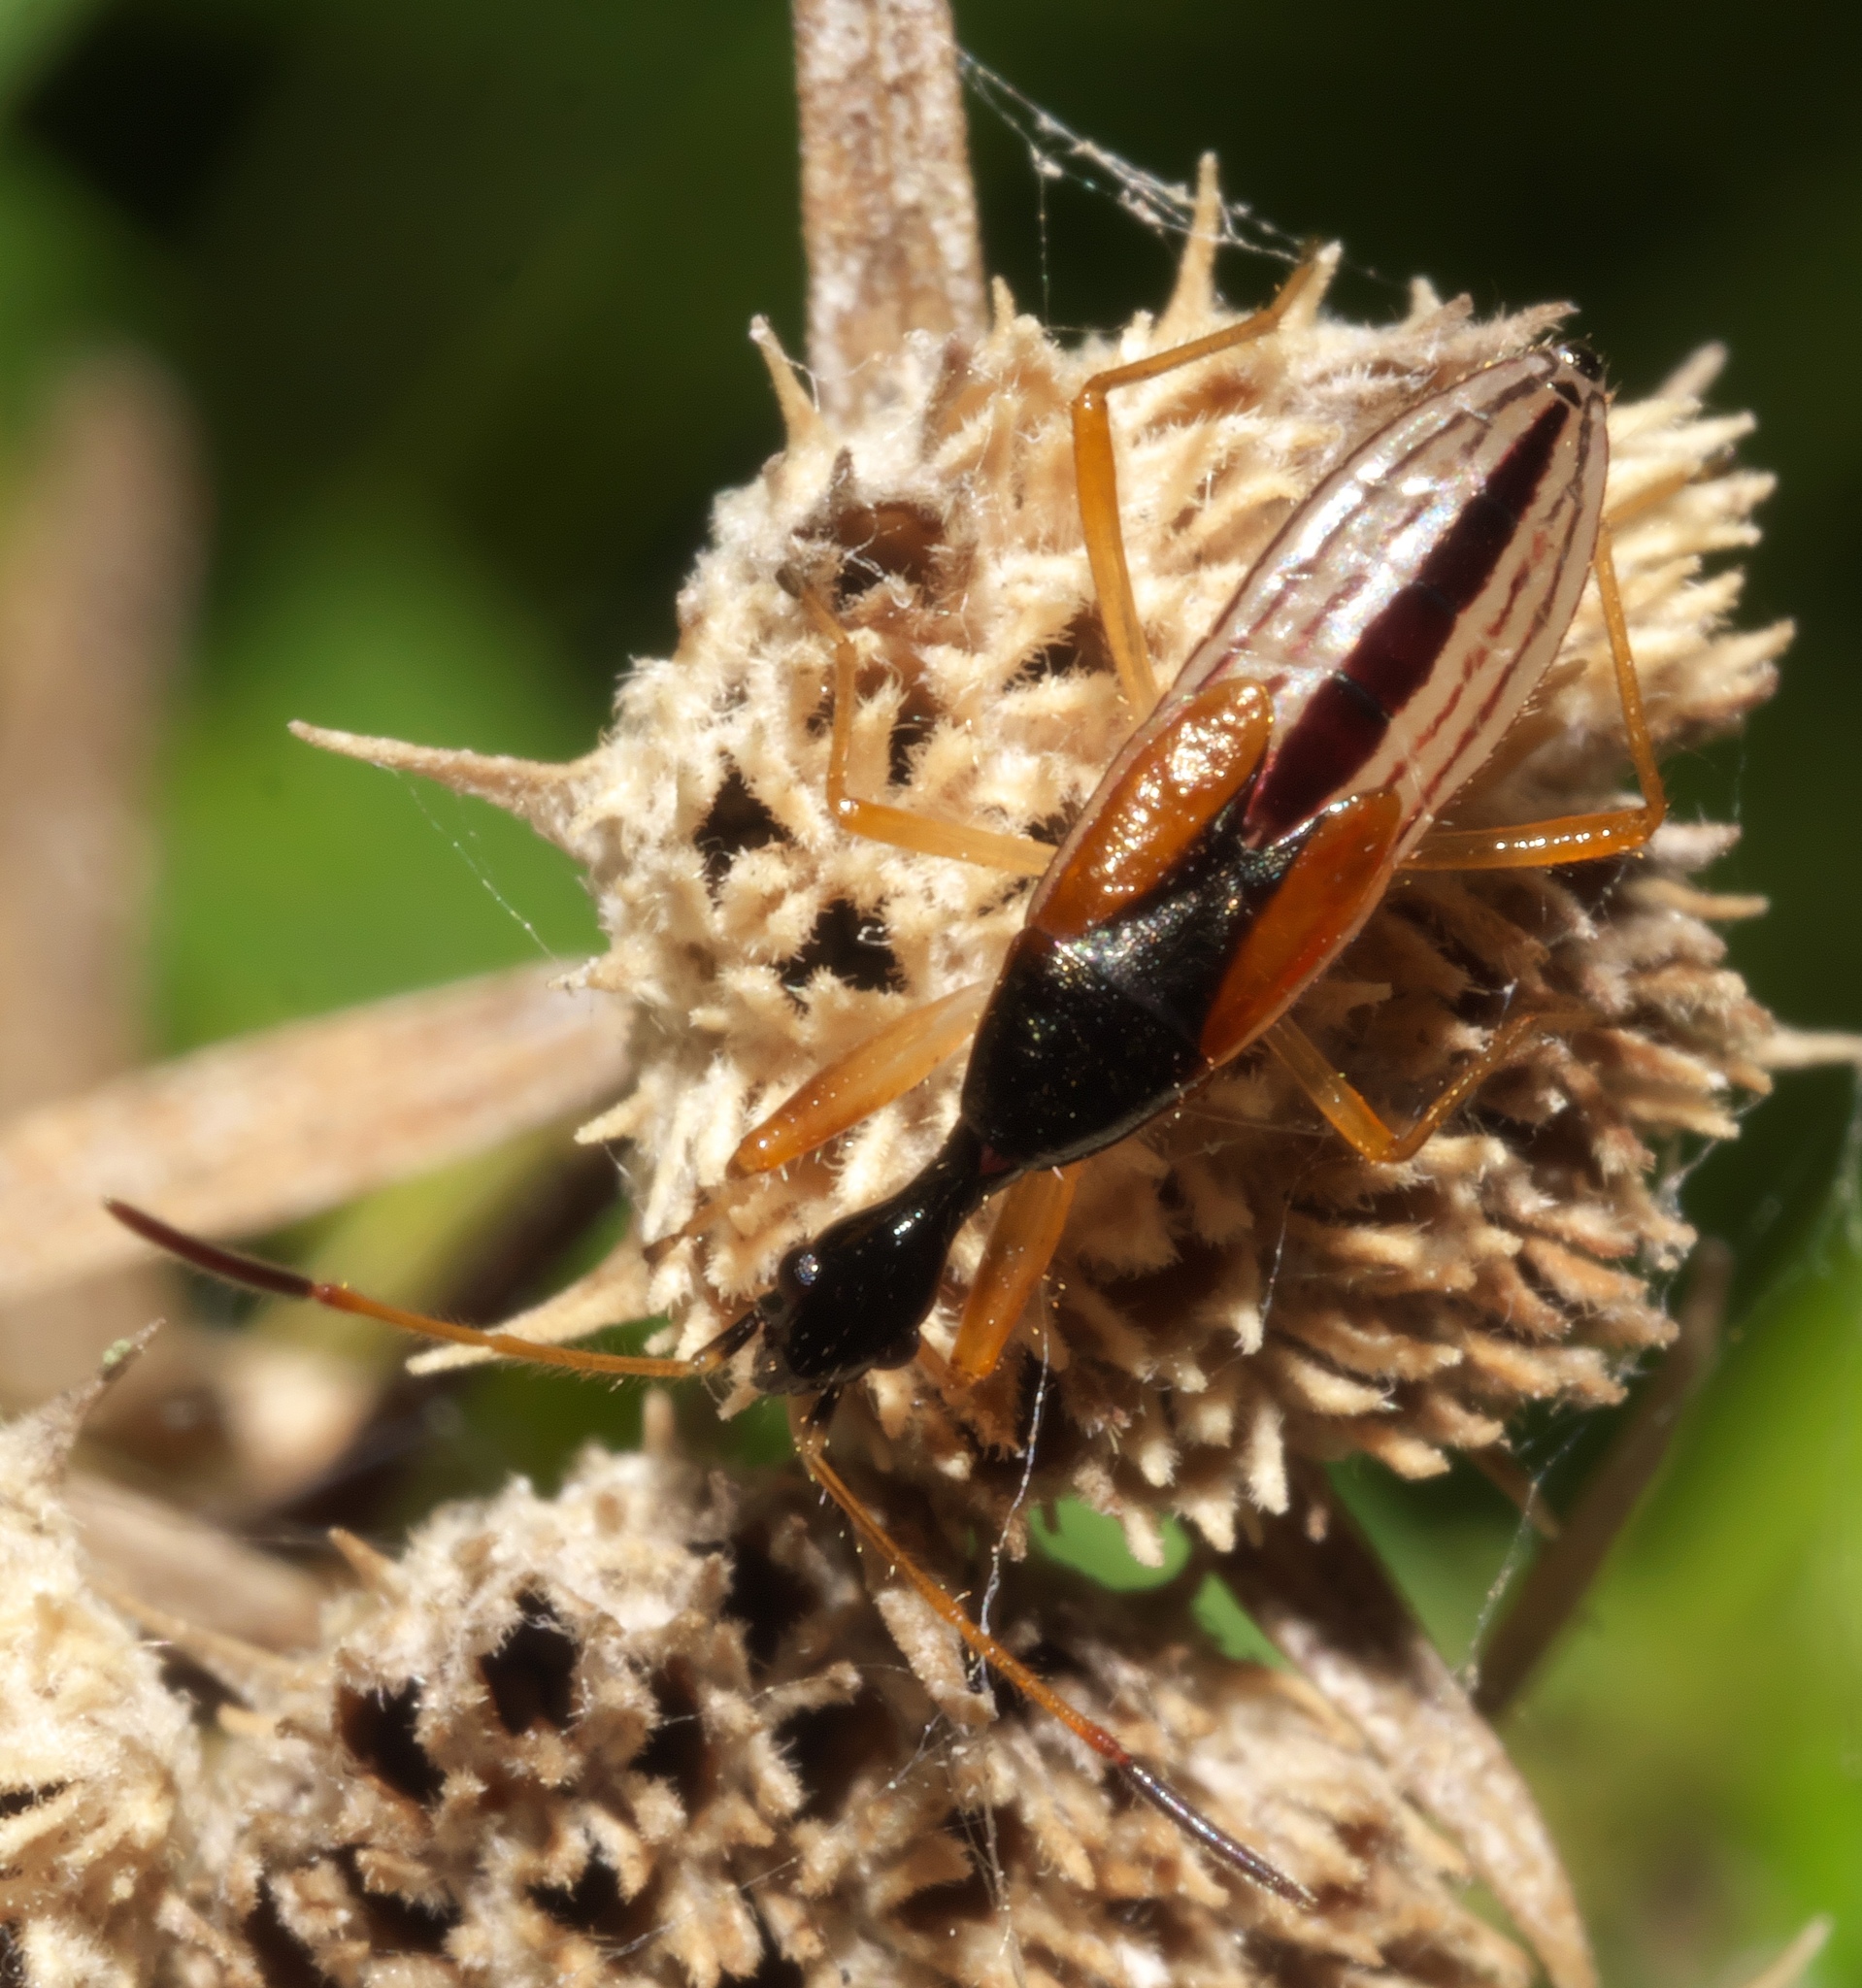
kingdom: Animalia
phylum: Arthropoda
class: Insecta
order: Hemiptera
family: Rhyparochromidae
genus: Myodocha
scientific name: Myodocha serripes
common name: Long-necked seed bug
